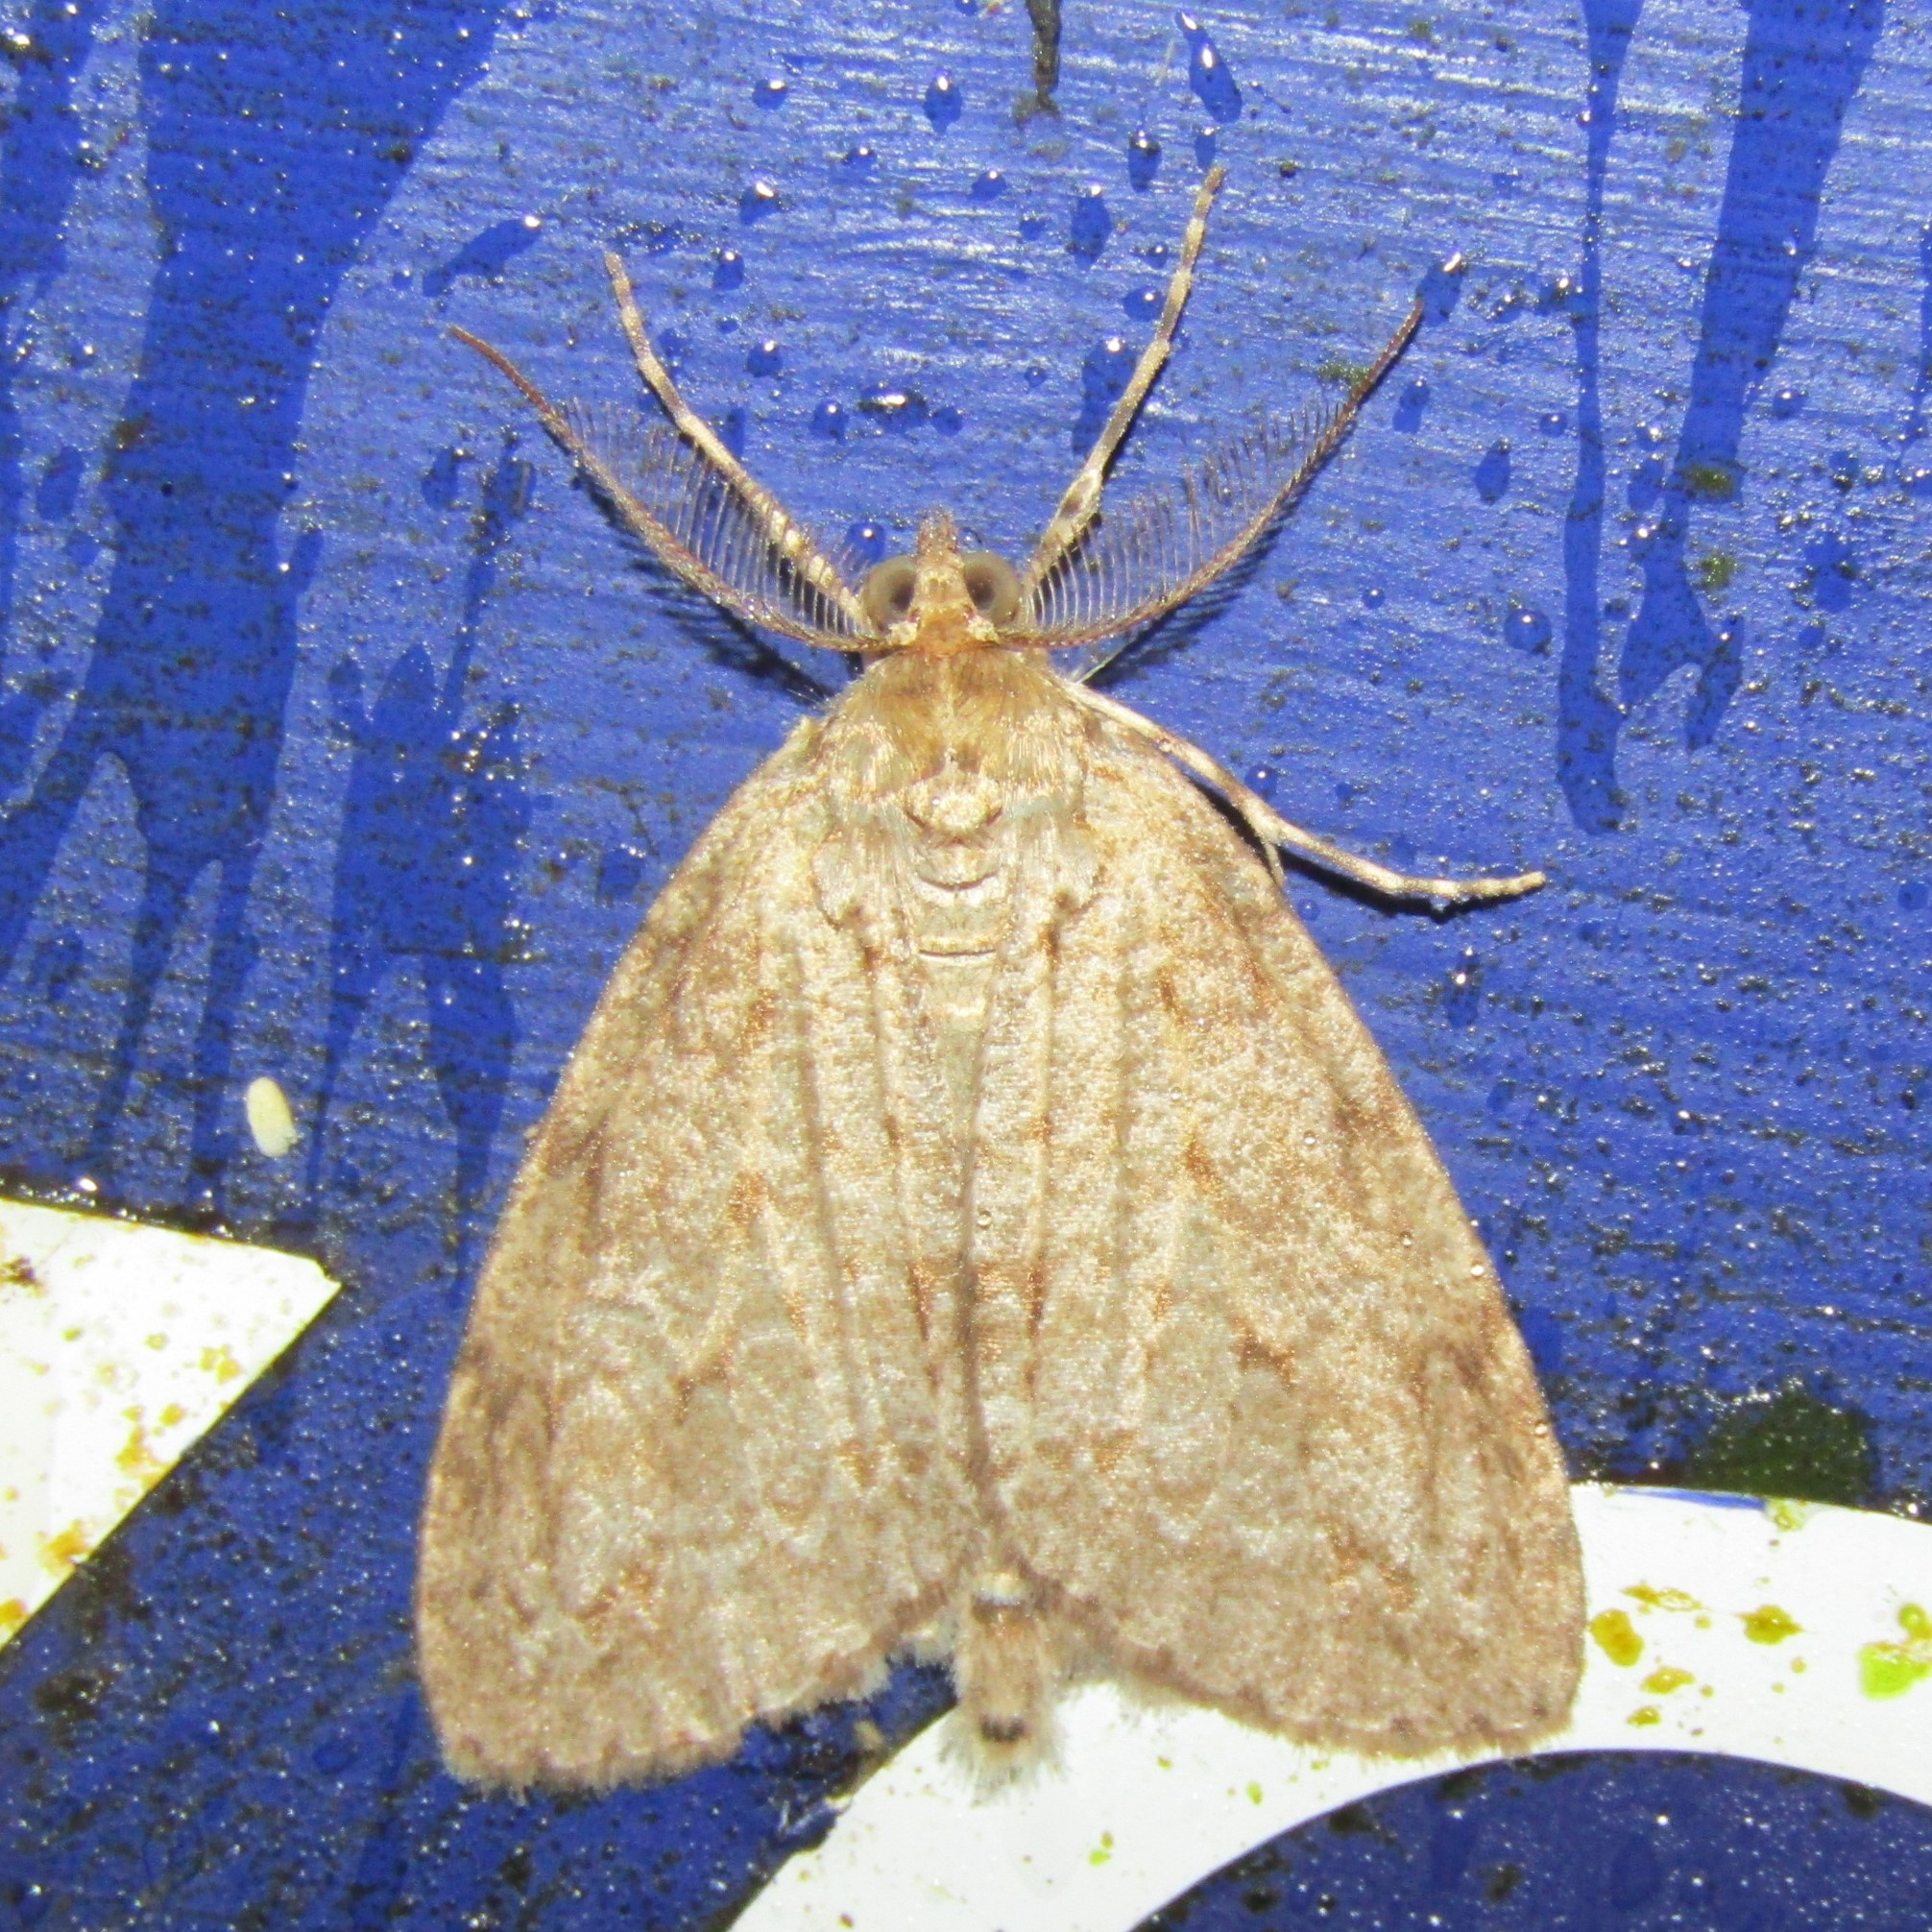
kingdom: Animalia
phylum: Arthropoda
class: Insecta
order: Lepidoptera
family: Geometridae
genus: Pseudocoremia
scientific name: Pseudocoremia fenerata
